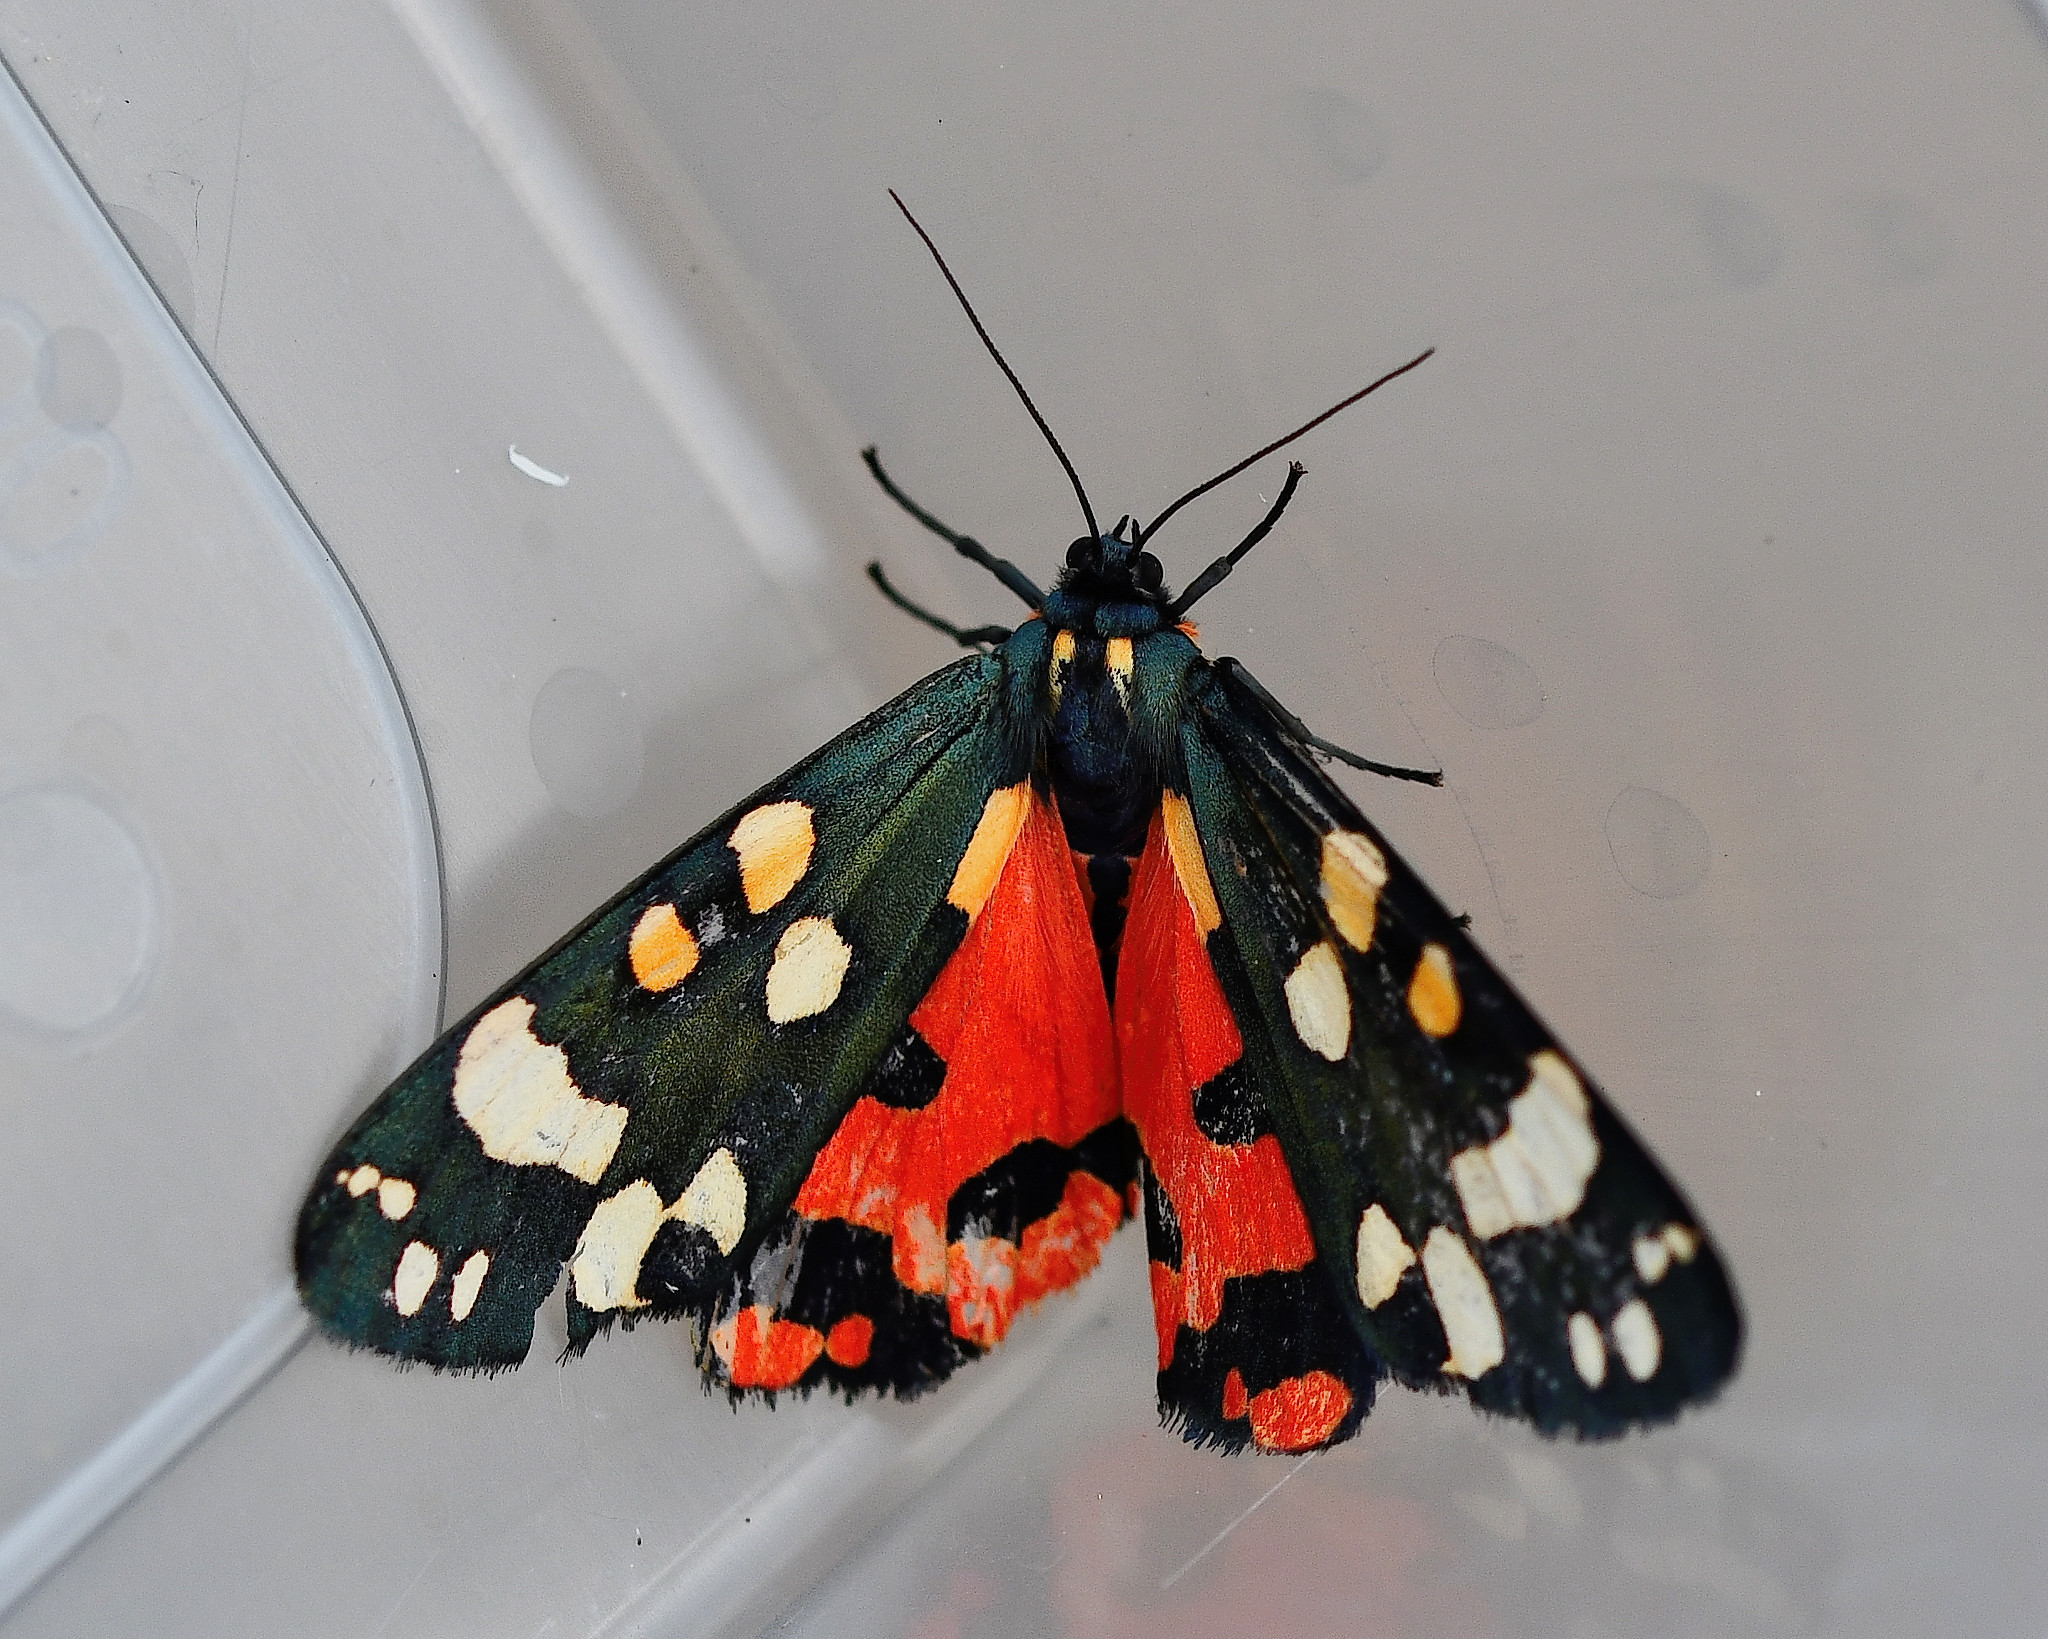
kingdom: Animalia
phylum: Arthropoda
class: Insecta
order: Lepidoptera
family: Erebidae
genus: Callimorpha
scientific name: Callimorpha dominula
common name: Scarlet tiger
